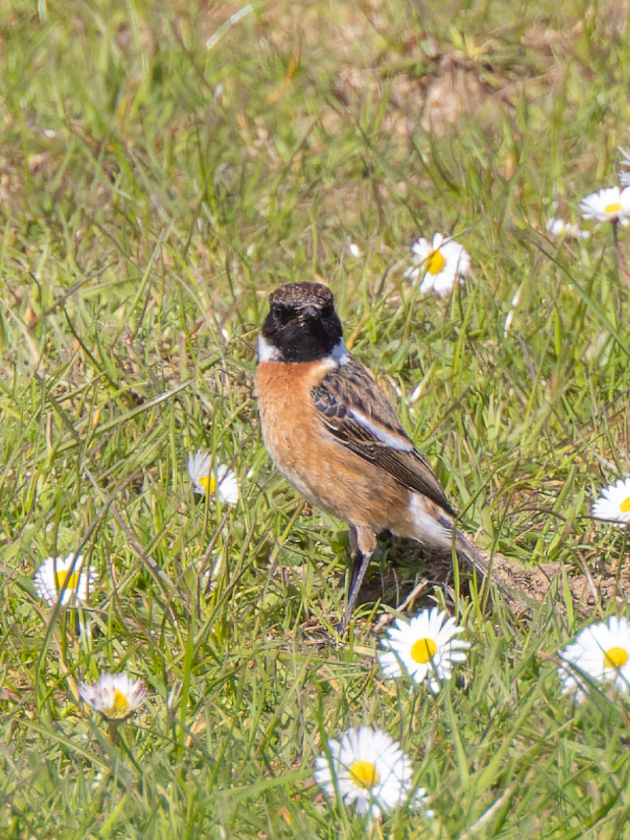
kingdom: Animalia
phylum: Chordata
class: Aves
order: Passeriformes
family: Muscicapidae
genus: Saxicola
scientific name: Saxicola rubicola
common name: European stonechat
